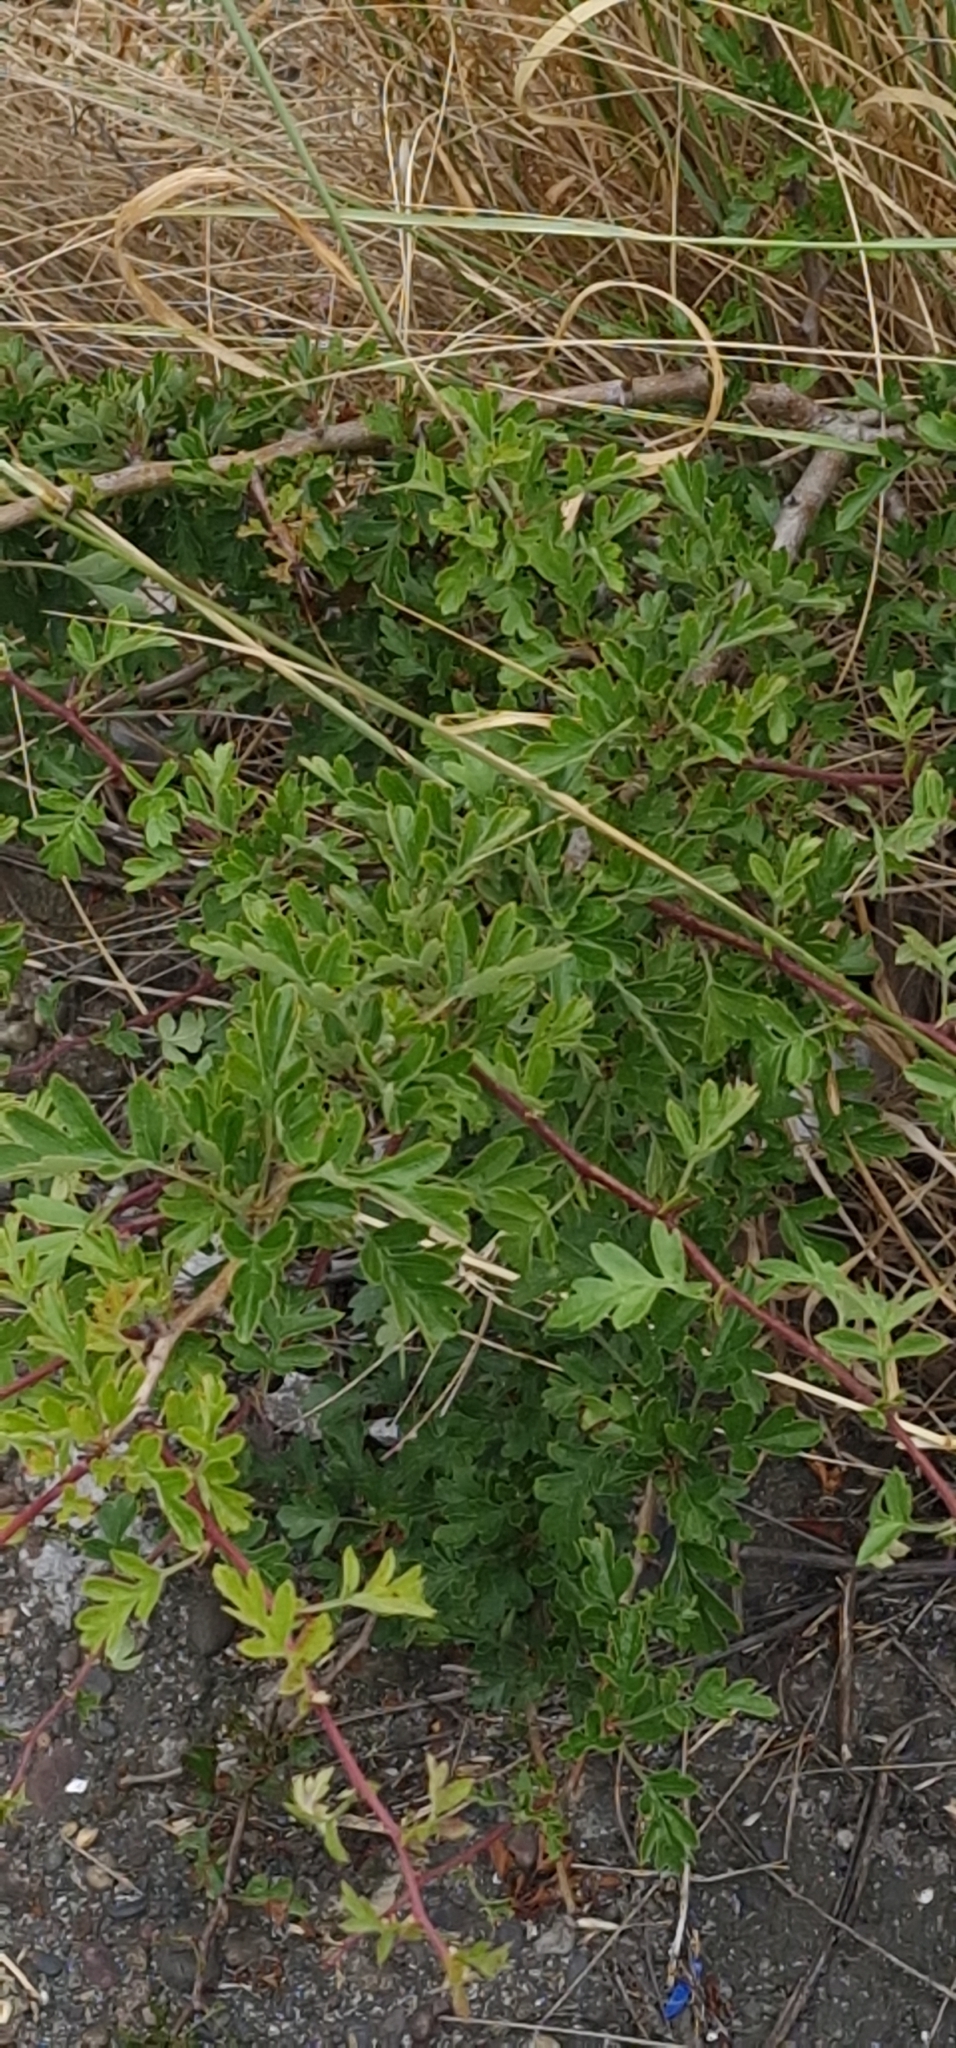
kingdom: Plantae
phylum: Tracheophyta
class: Magnoliopsida
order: Rosales
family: Rosaceae
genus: Crataegus
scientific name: Crataegus monogyna
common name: Hawthorn
